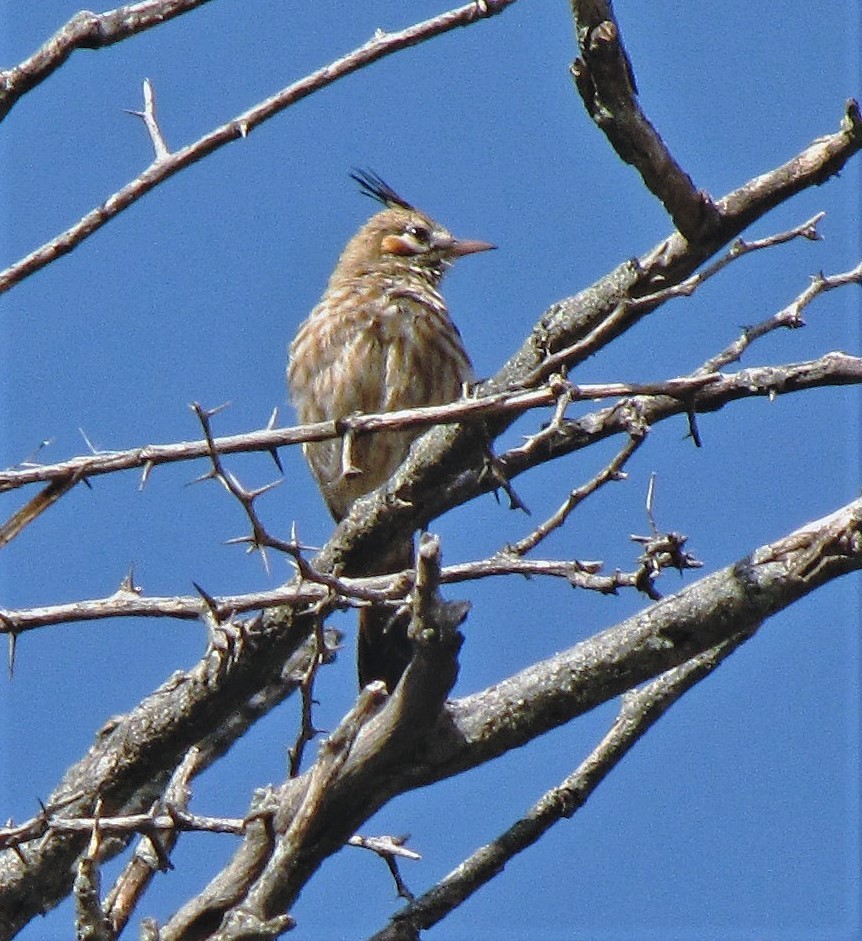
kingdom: Animalia
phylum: Chordata
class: Aves
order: Passeriformes
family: Furnariidae
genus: Coryphistera
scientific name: Coryphistera alaudina
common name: Lark-like brushrunner
